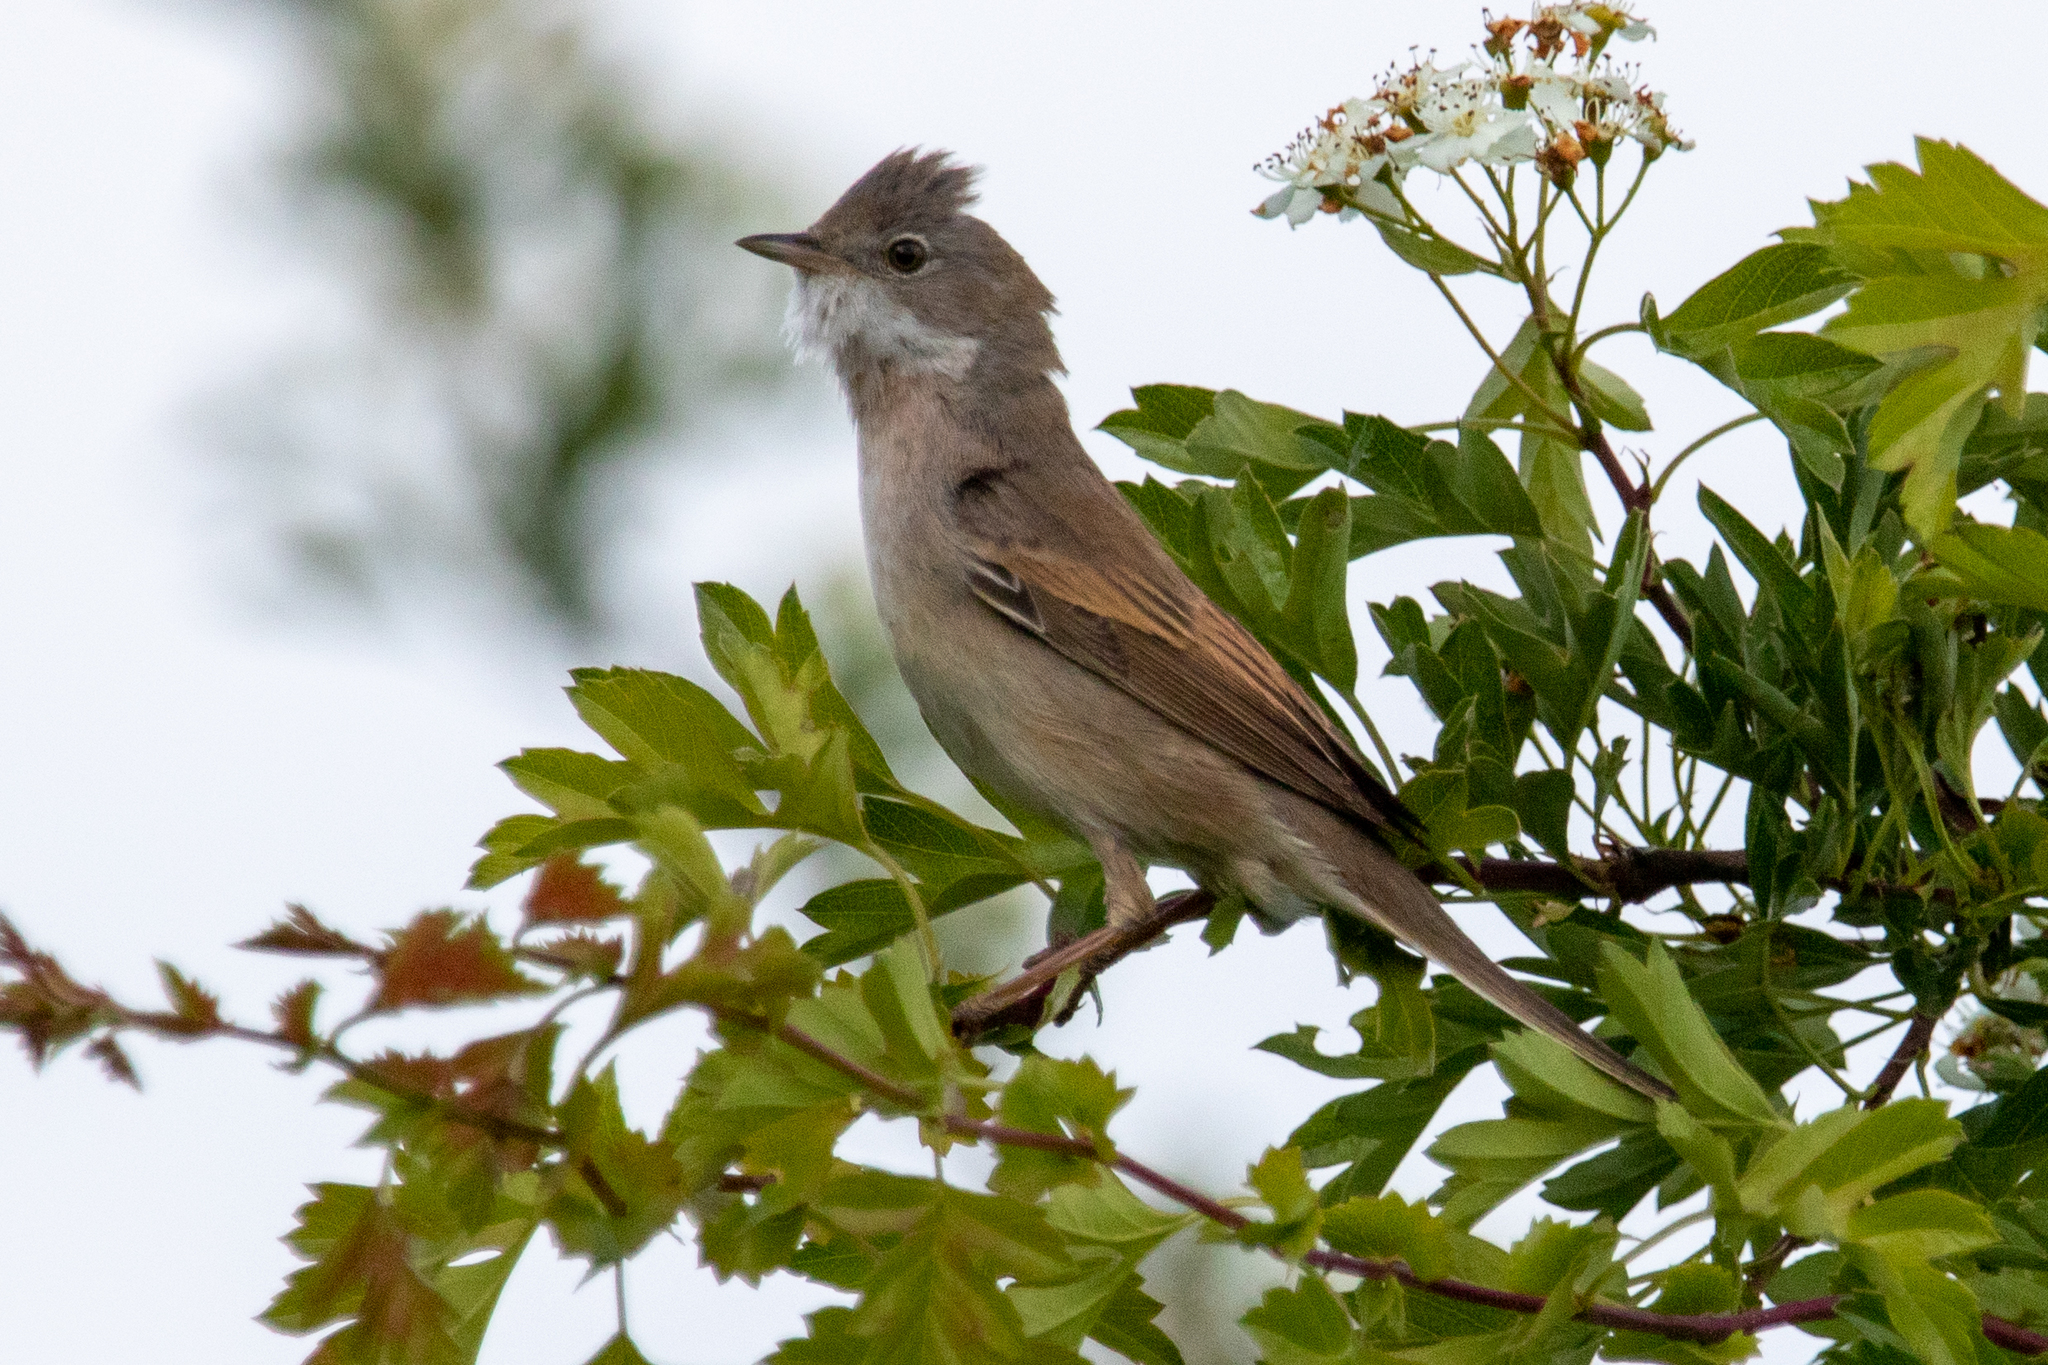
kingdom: Animalia
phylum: Chordata
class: Aves
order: Passeriformes
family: Sylviidae
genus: Sylvia
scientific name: Sylvia communis
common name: Common whitethroat
